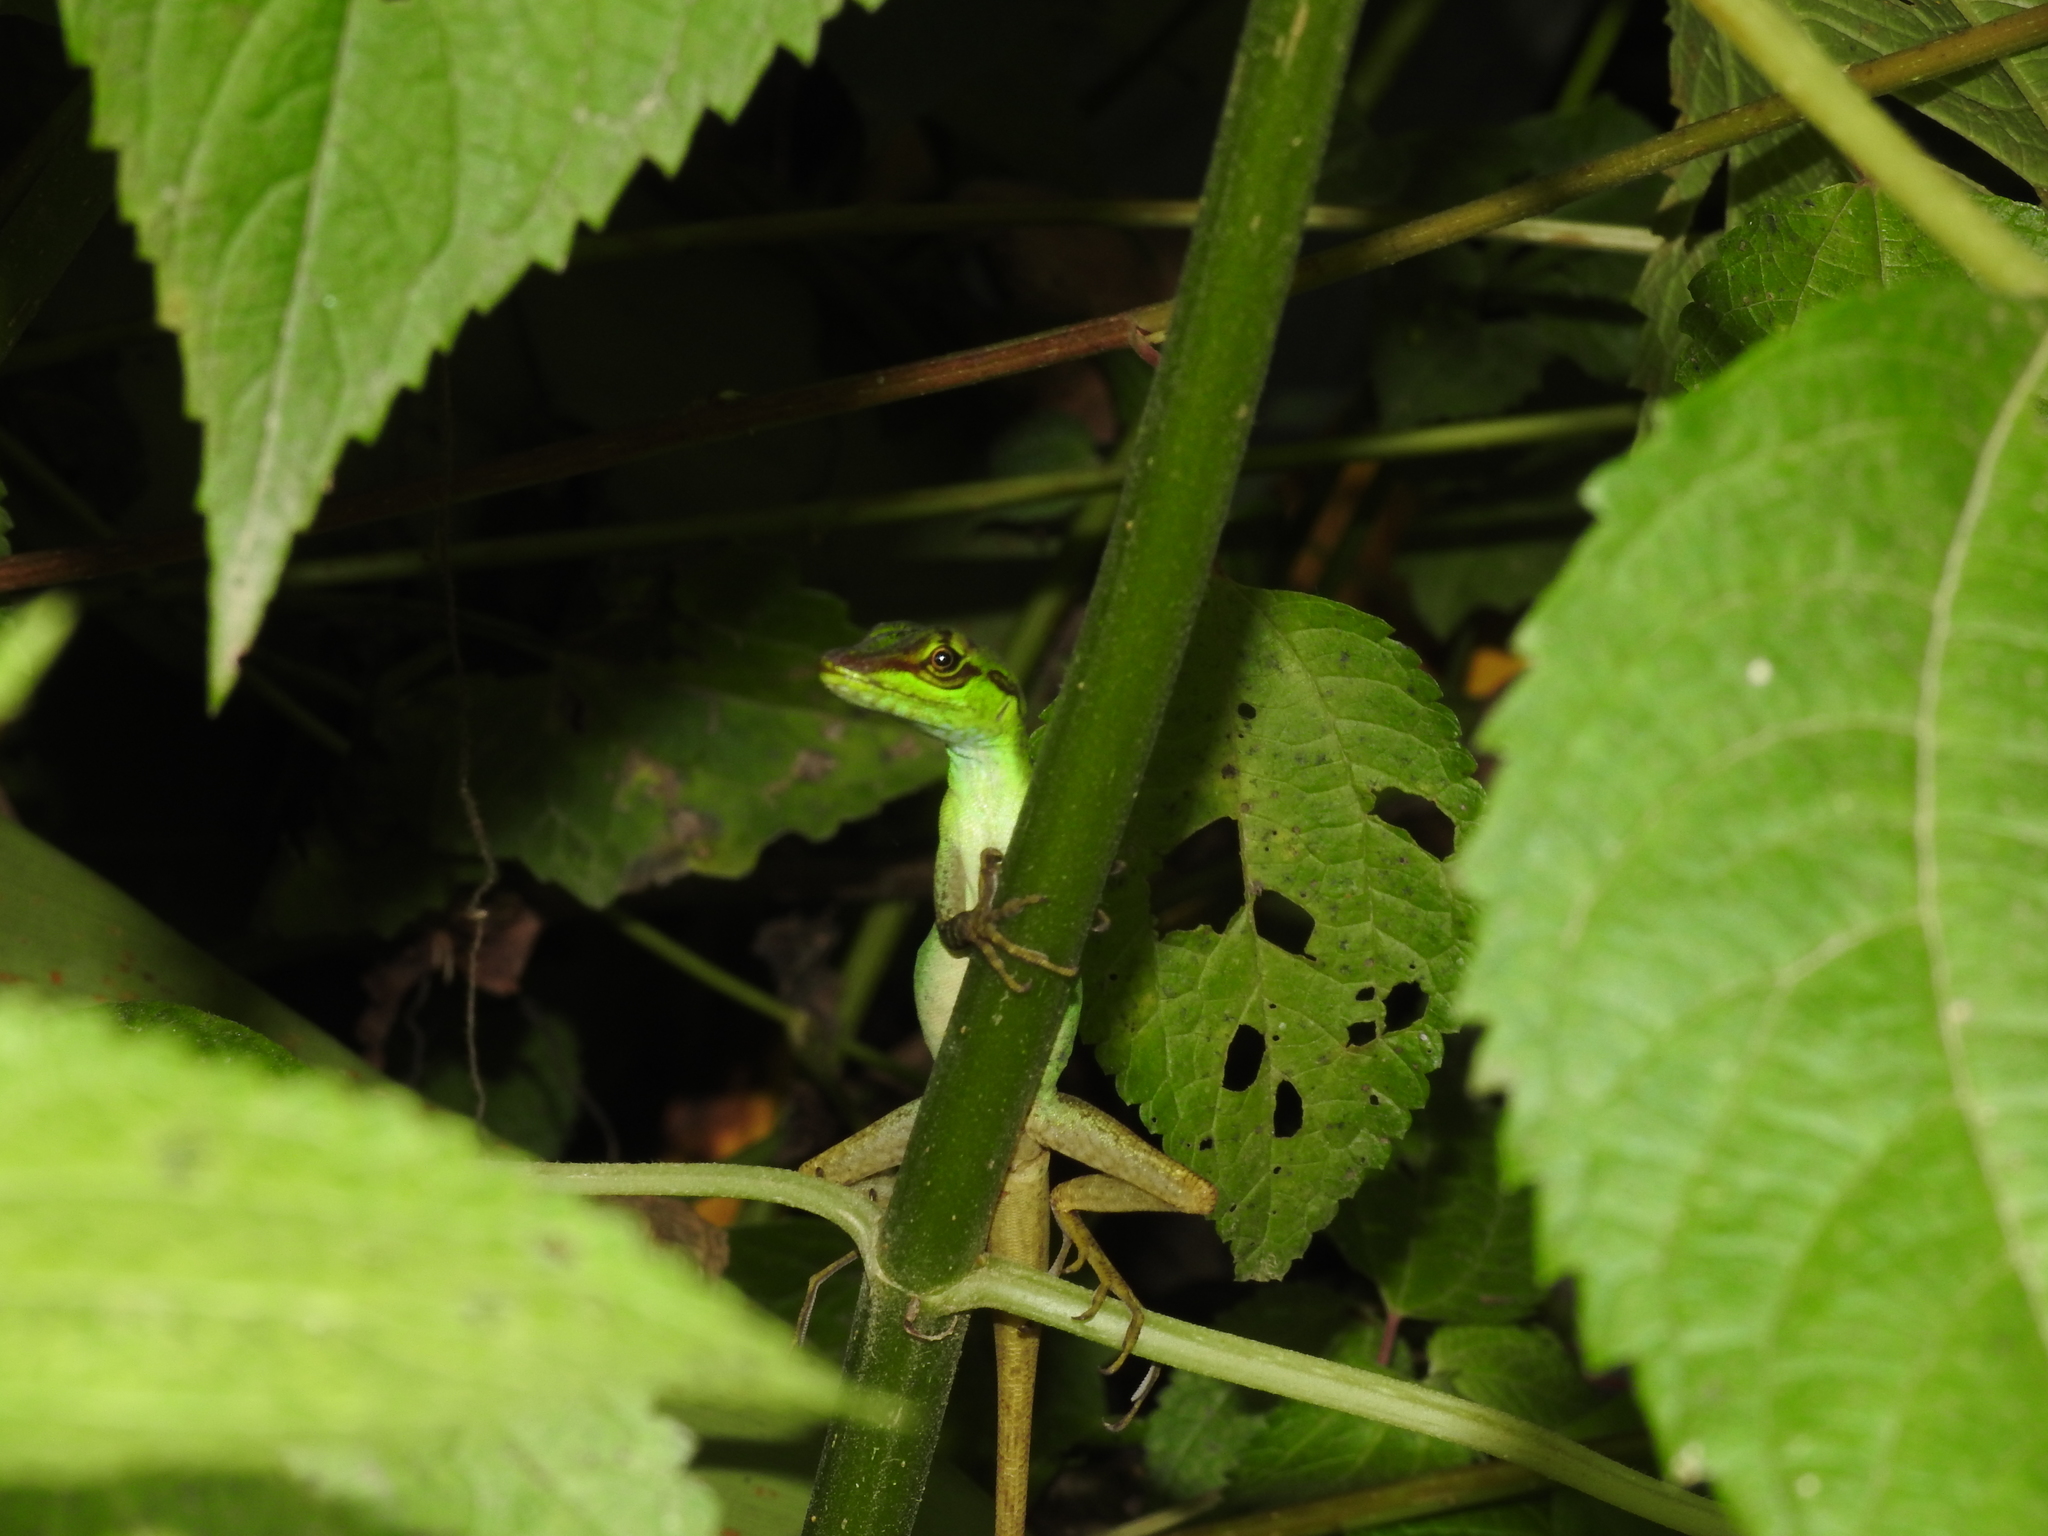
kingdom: Animalia
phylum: Chordata
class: Squamata
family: Dactyloidae
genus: Anolis
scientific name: Anolis ventrimaculatus
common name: Speckled anole
